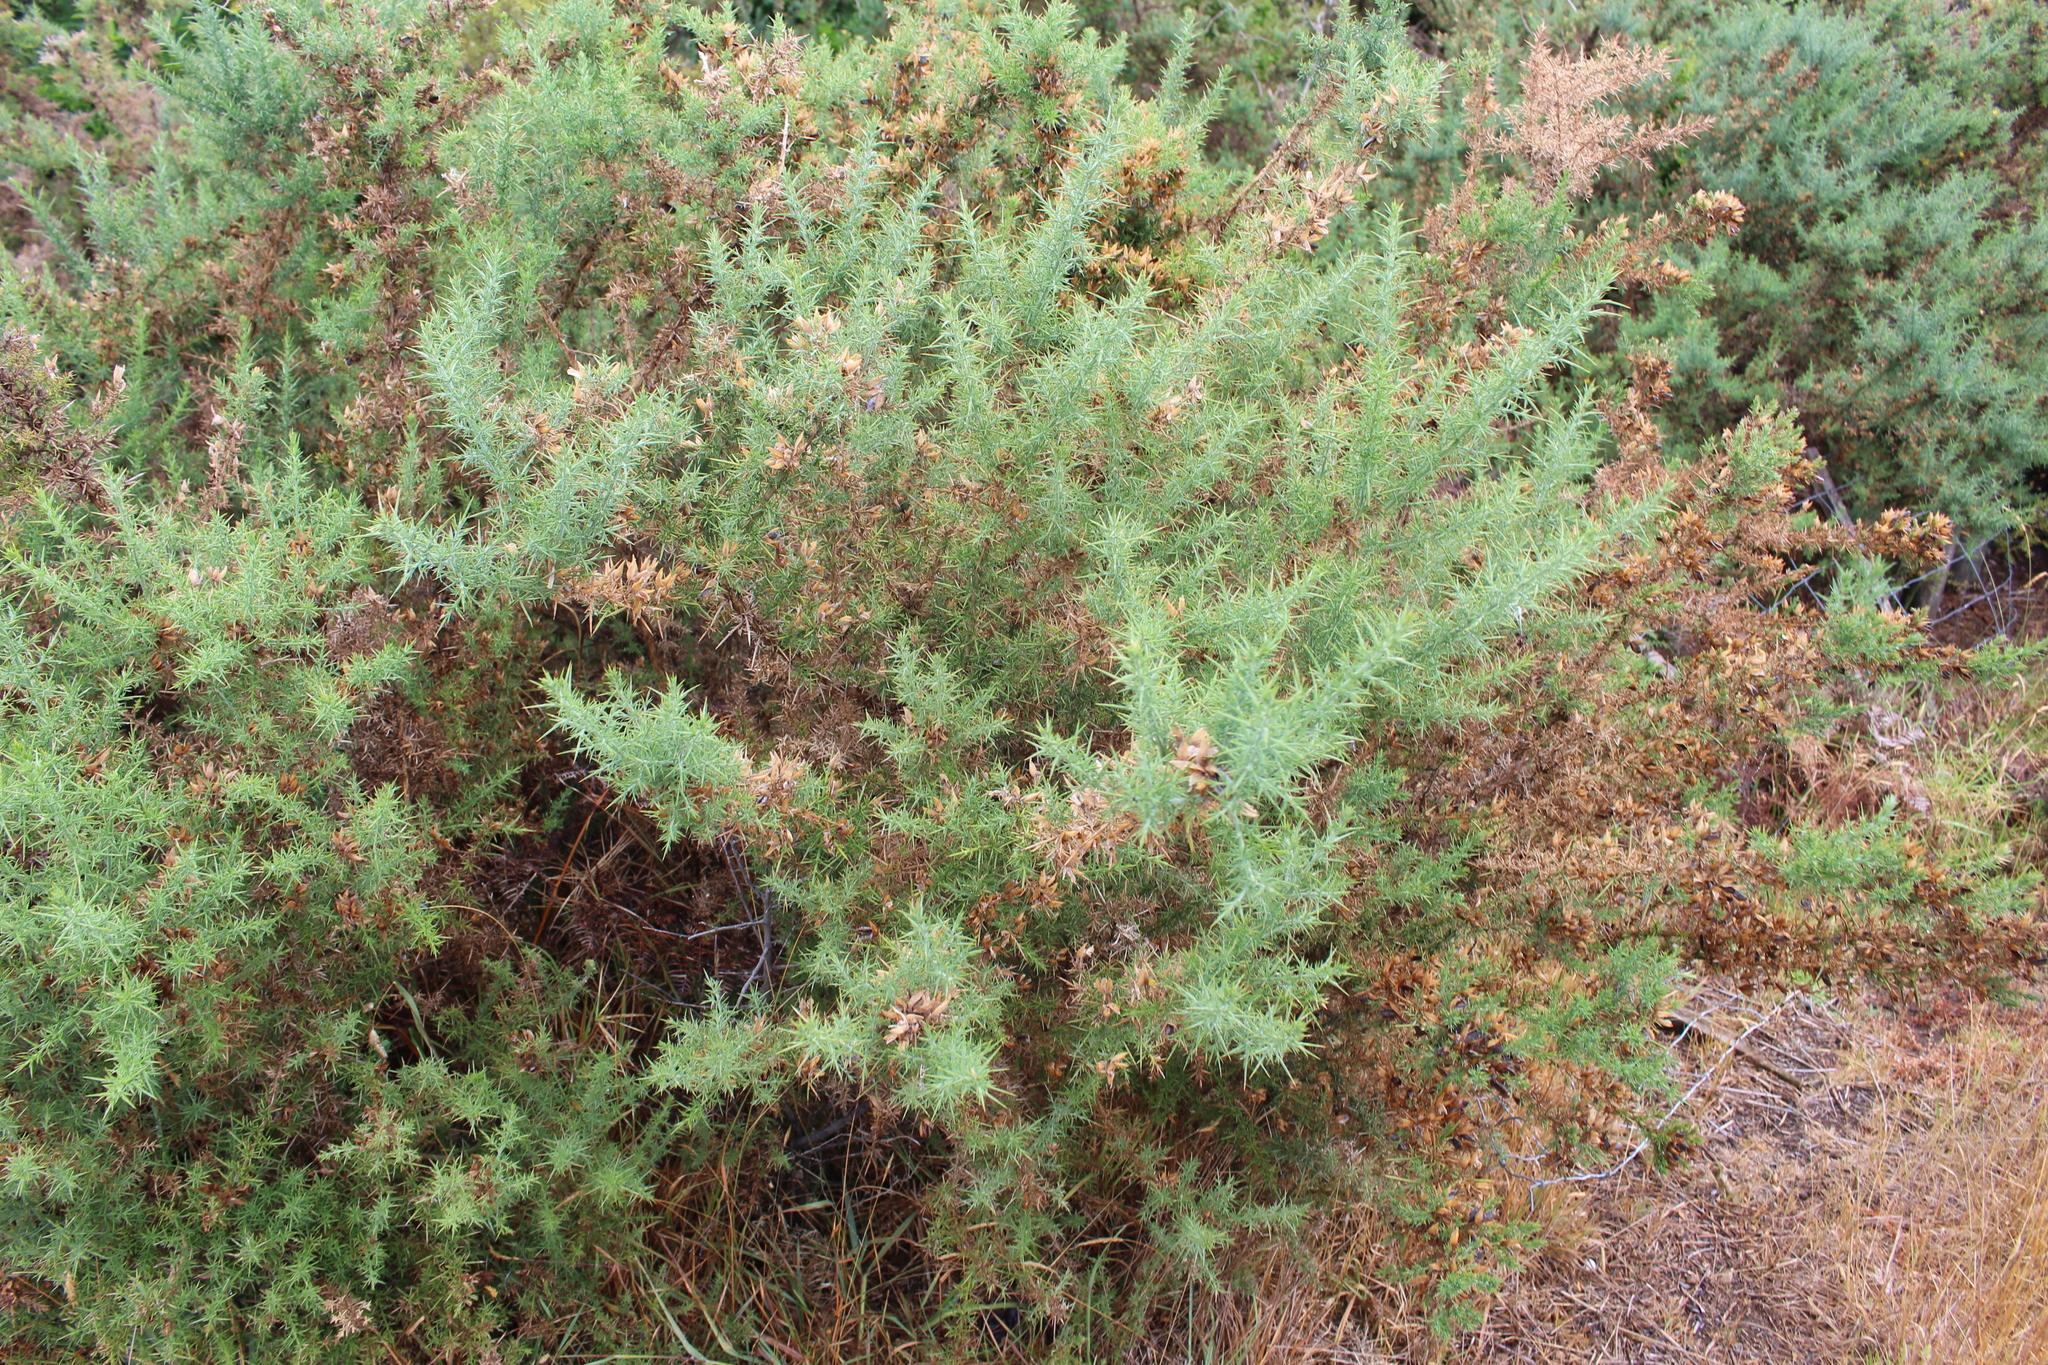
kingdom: Plantae
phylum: Tracheophyta
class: Magnoliopsida
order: Fabales
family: Fabaceae
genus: Ulex
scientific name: Ulex europaeus
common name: Common gorse
